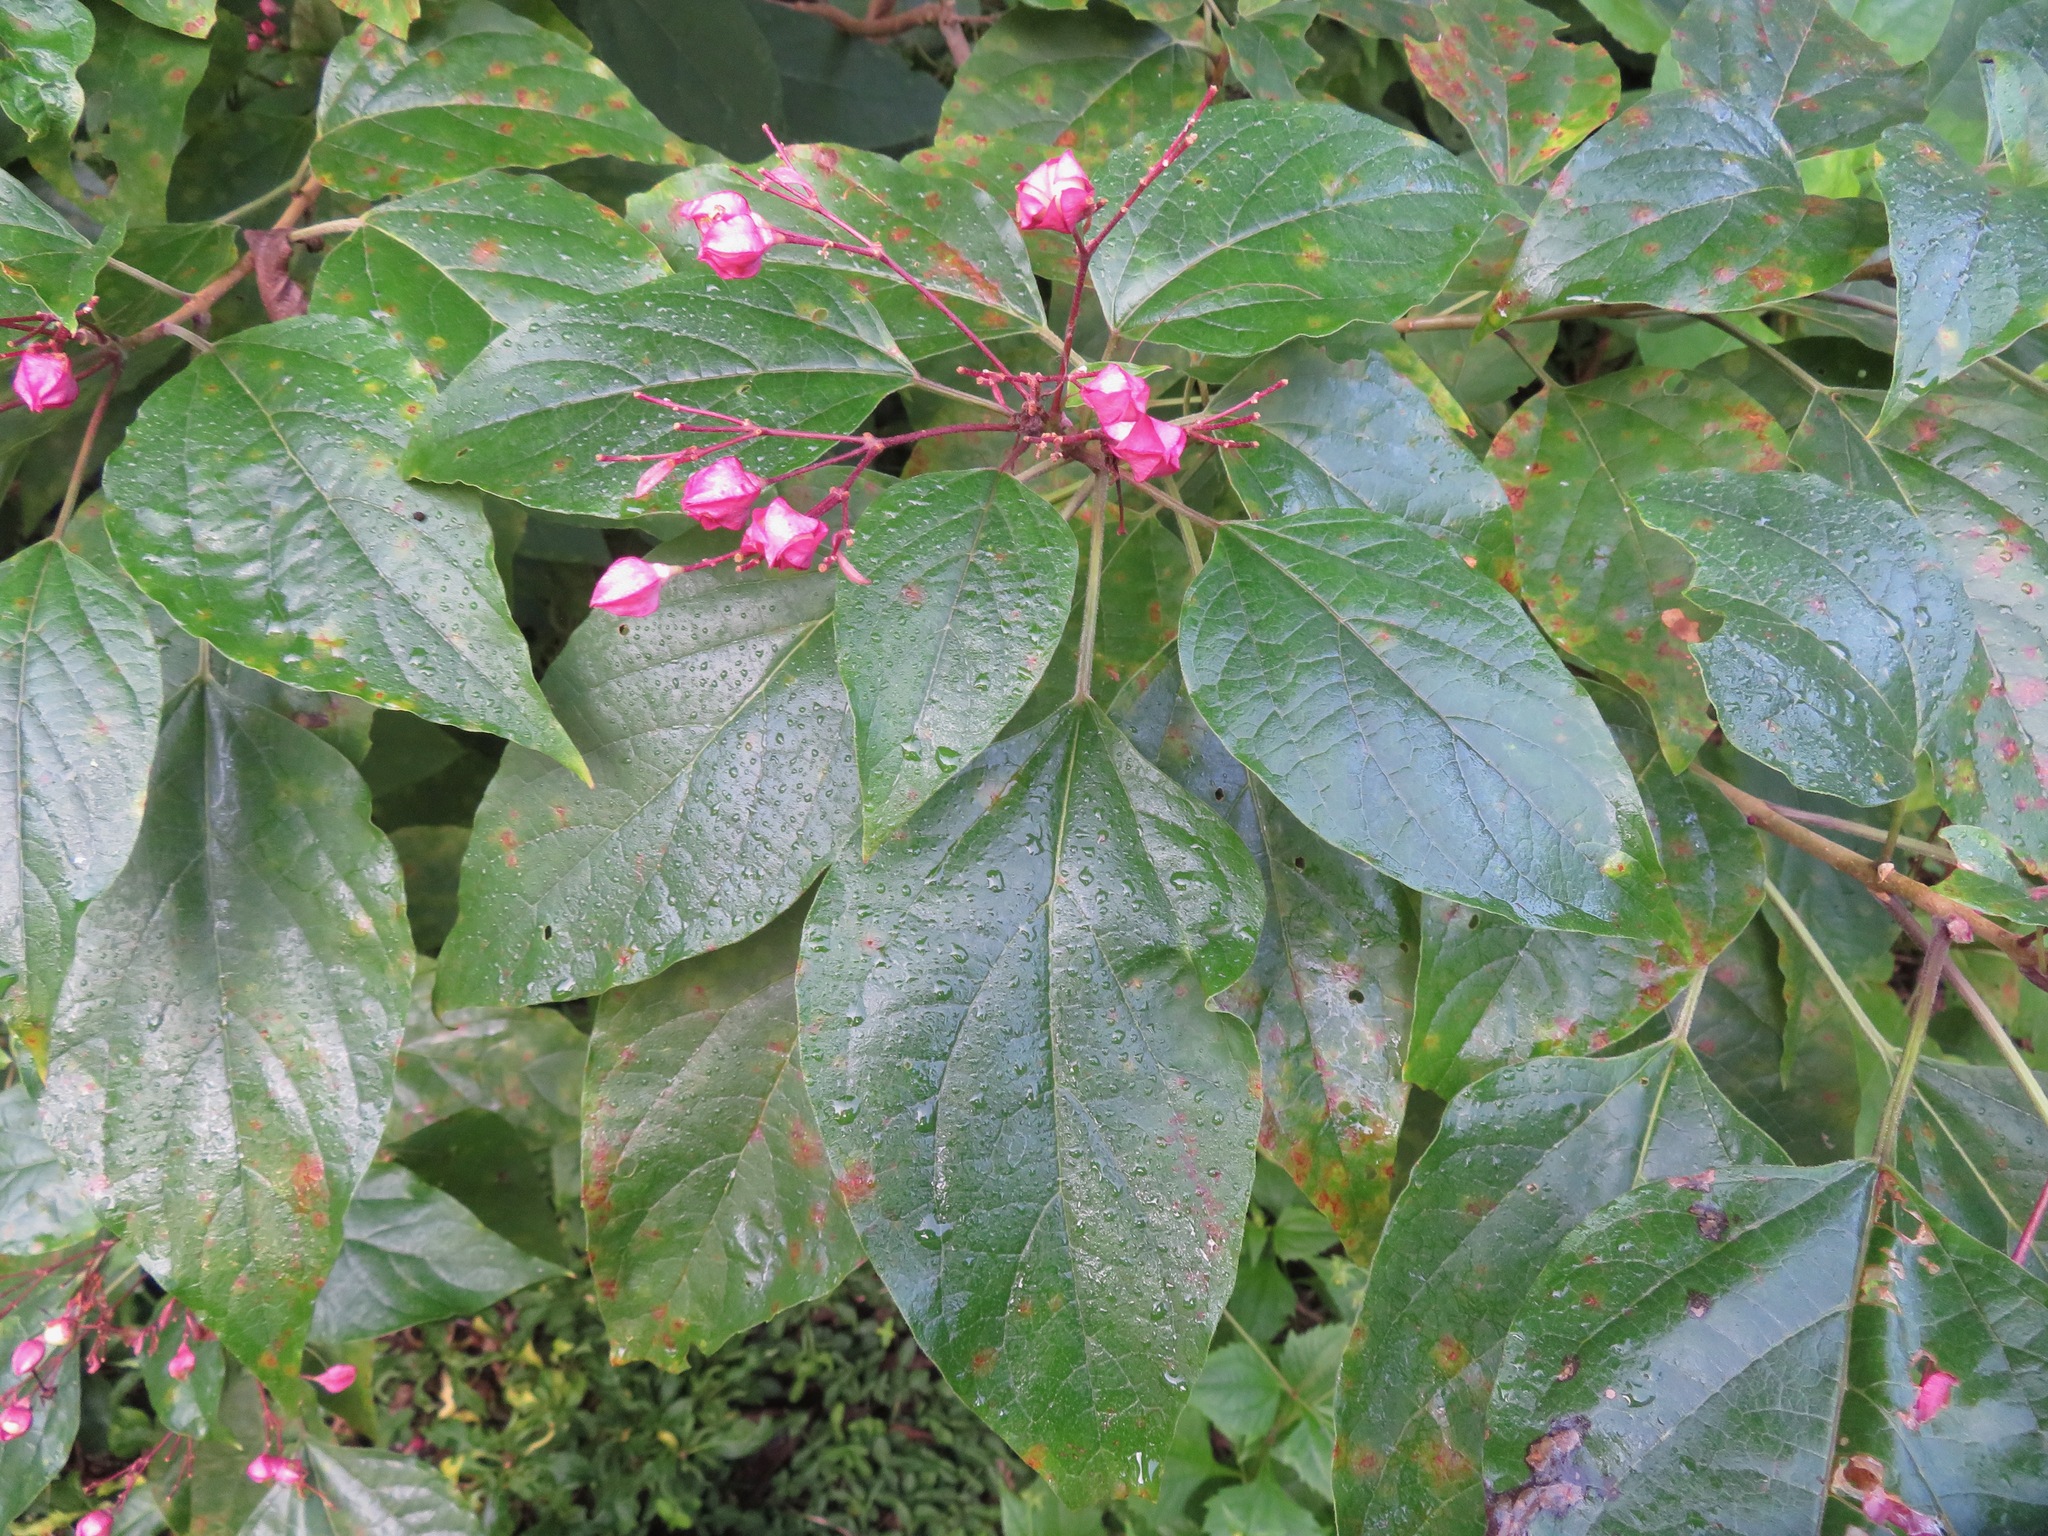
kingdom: Plantae
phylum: Tracheophyta
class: Magnoliopsida
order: Lamiales
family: Lamiaceae
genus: Clerodendrum
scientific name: Clerodendrum trichotomum
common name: Harlequin glorybower
